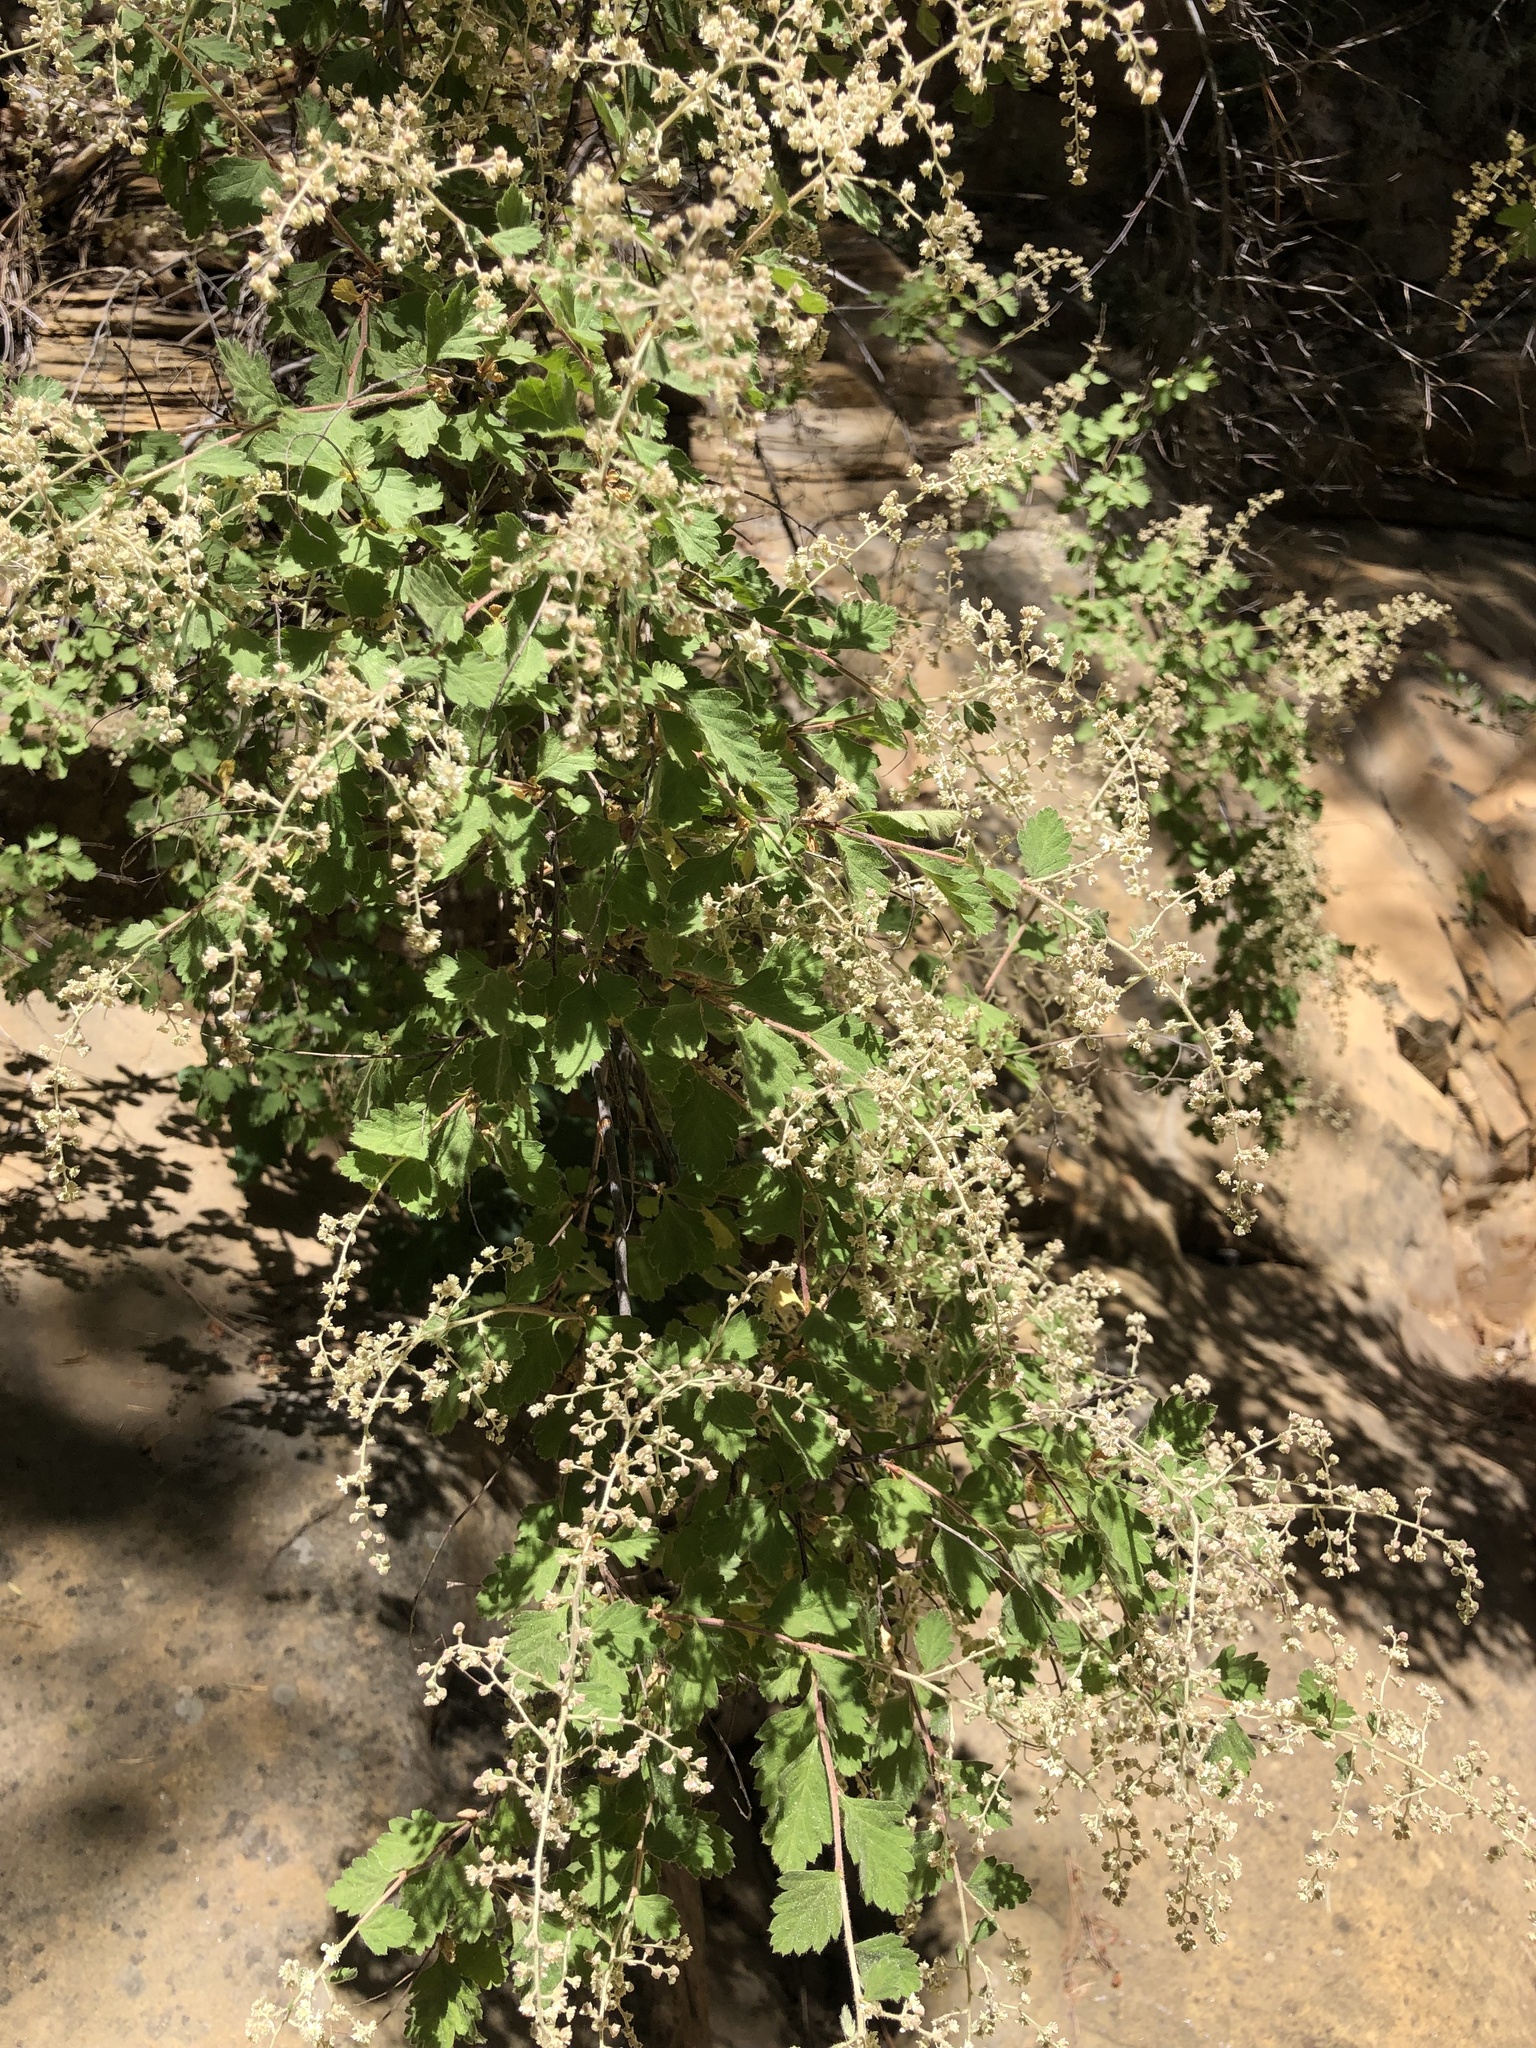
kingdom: Plantae
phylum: Tracheophyta
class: Magnoliopsida
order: Rosales
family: Rosaceae
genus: Holodiscus
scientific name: Holodiscus discolor
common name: Oceanspray
